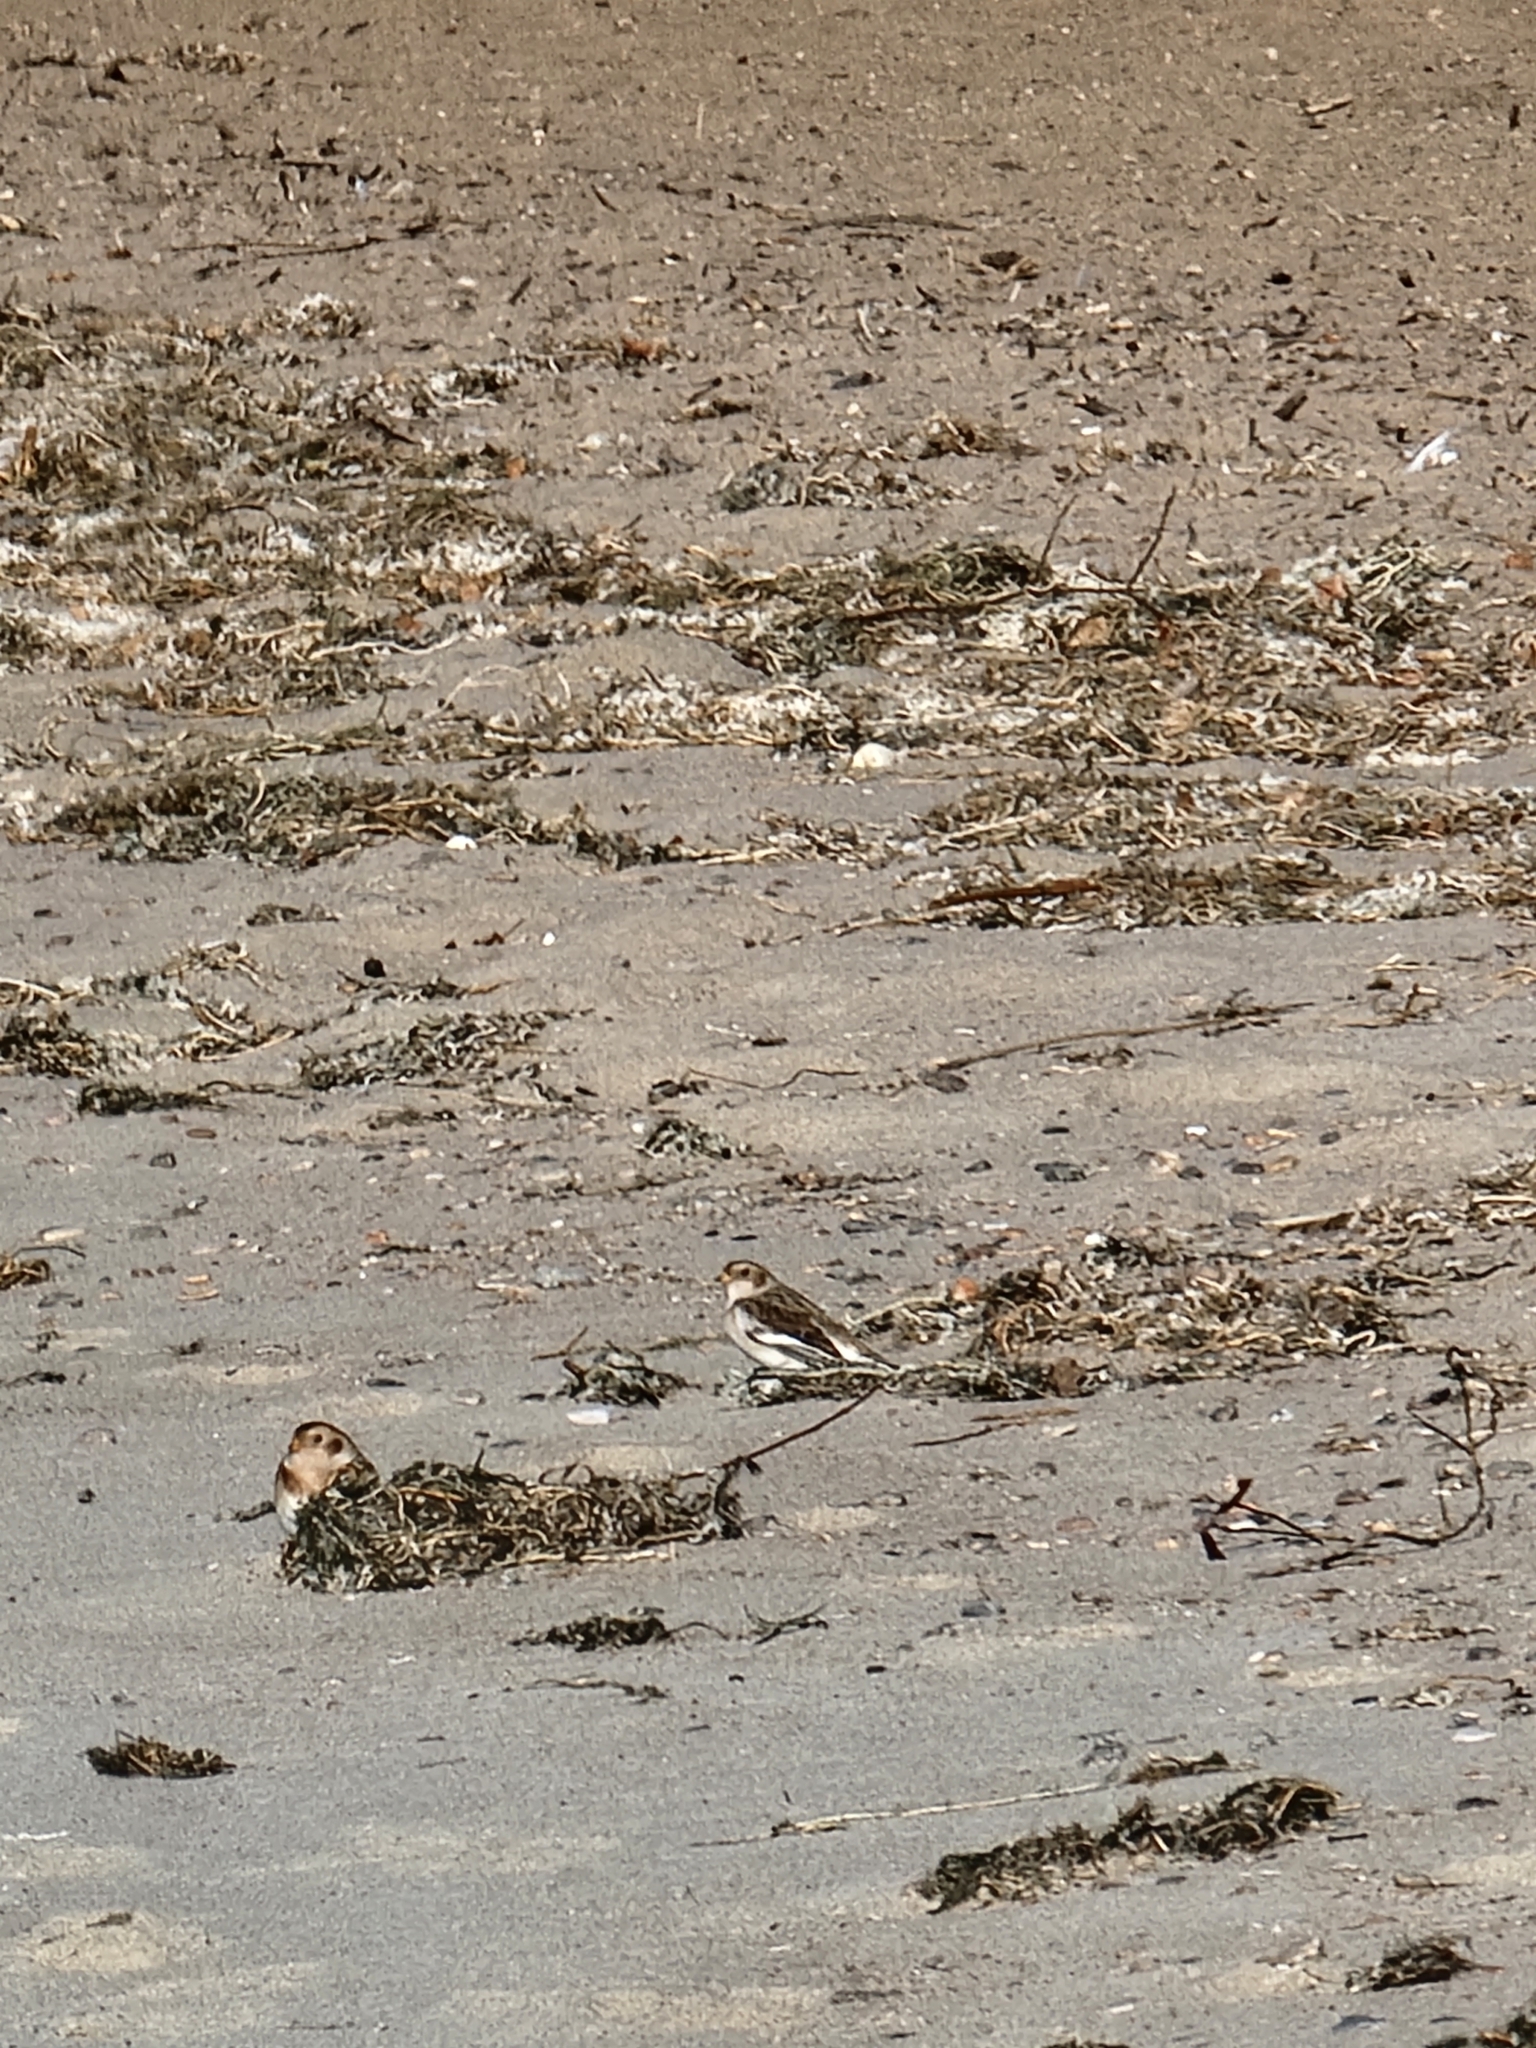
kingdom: Animalia
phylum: Chordata
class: Aves
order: Passeriformes
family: Calcariidae
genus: Plectrophenax
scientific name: Plectrophenax nivalis
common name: Snow bunting
